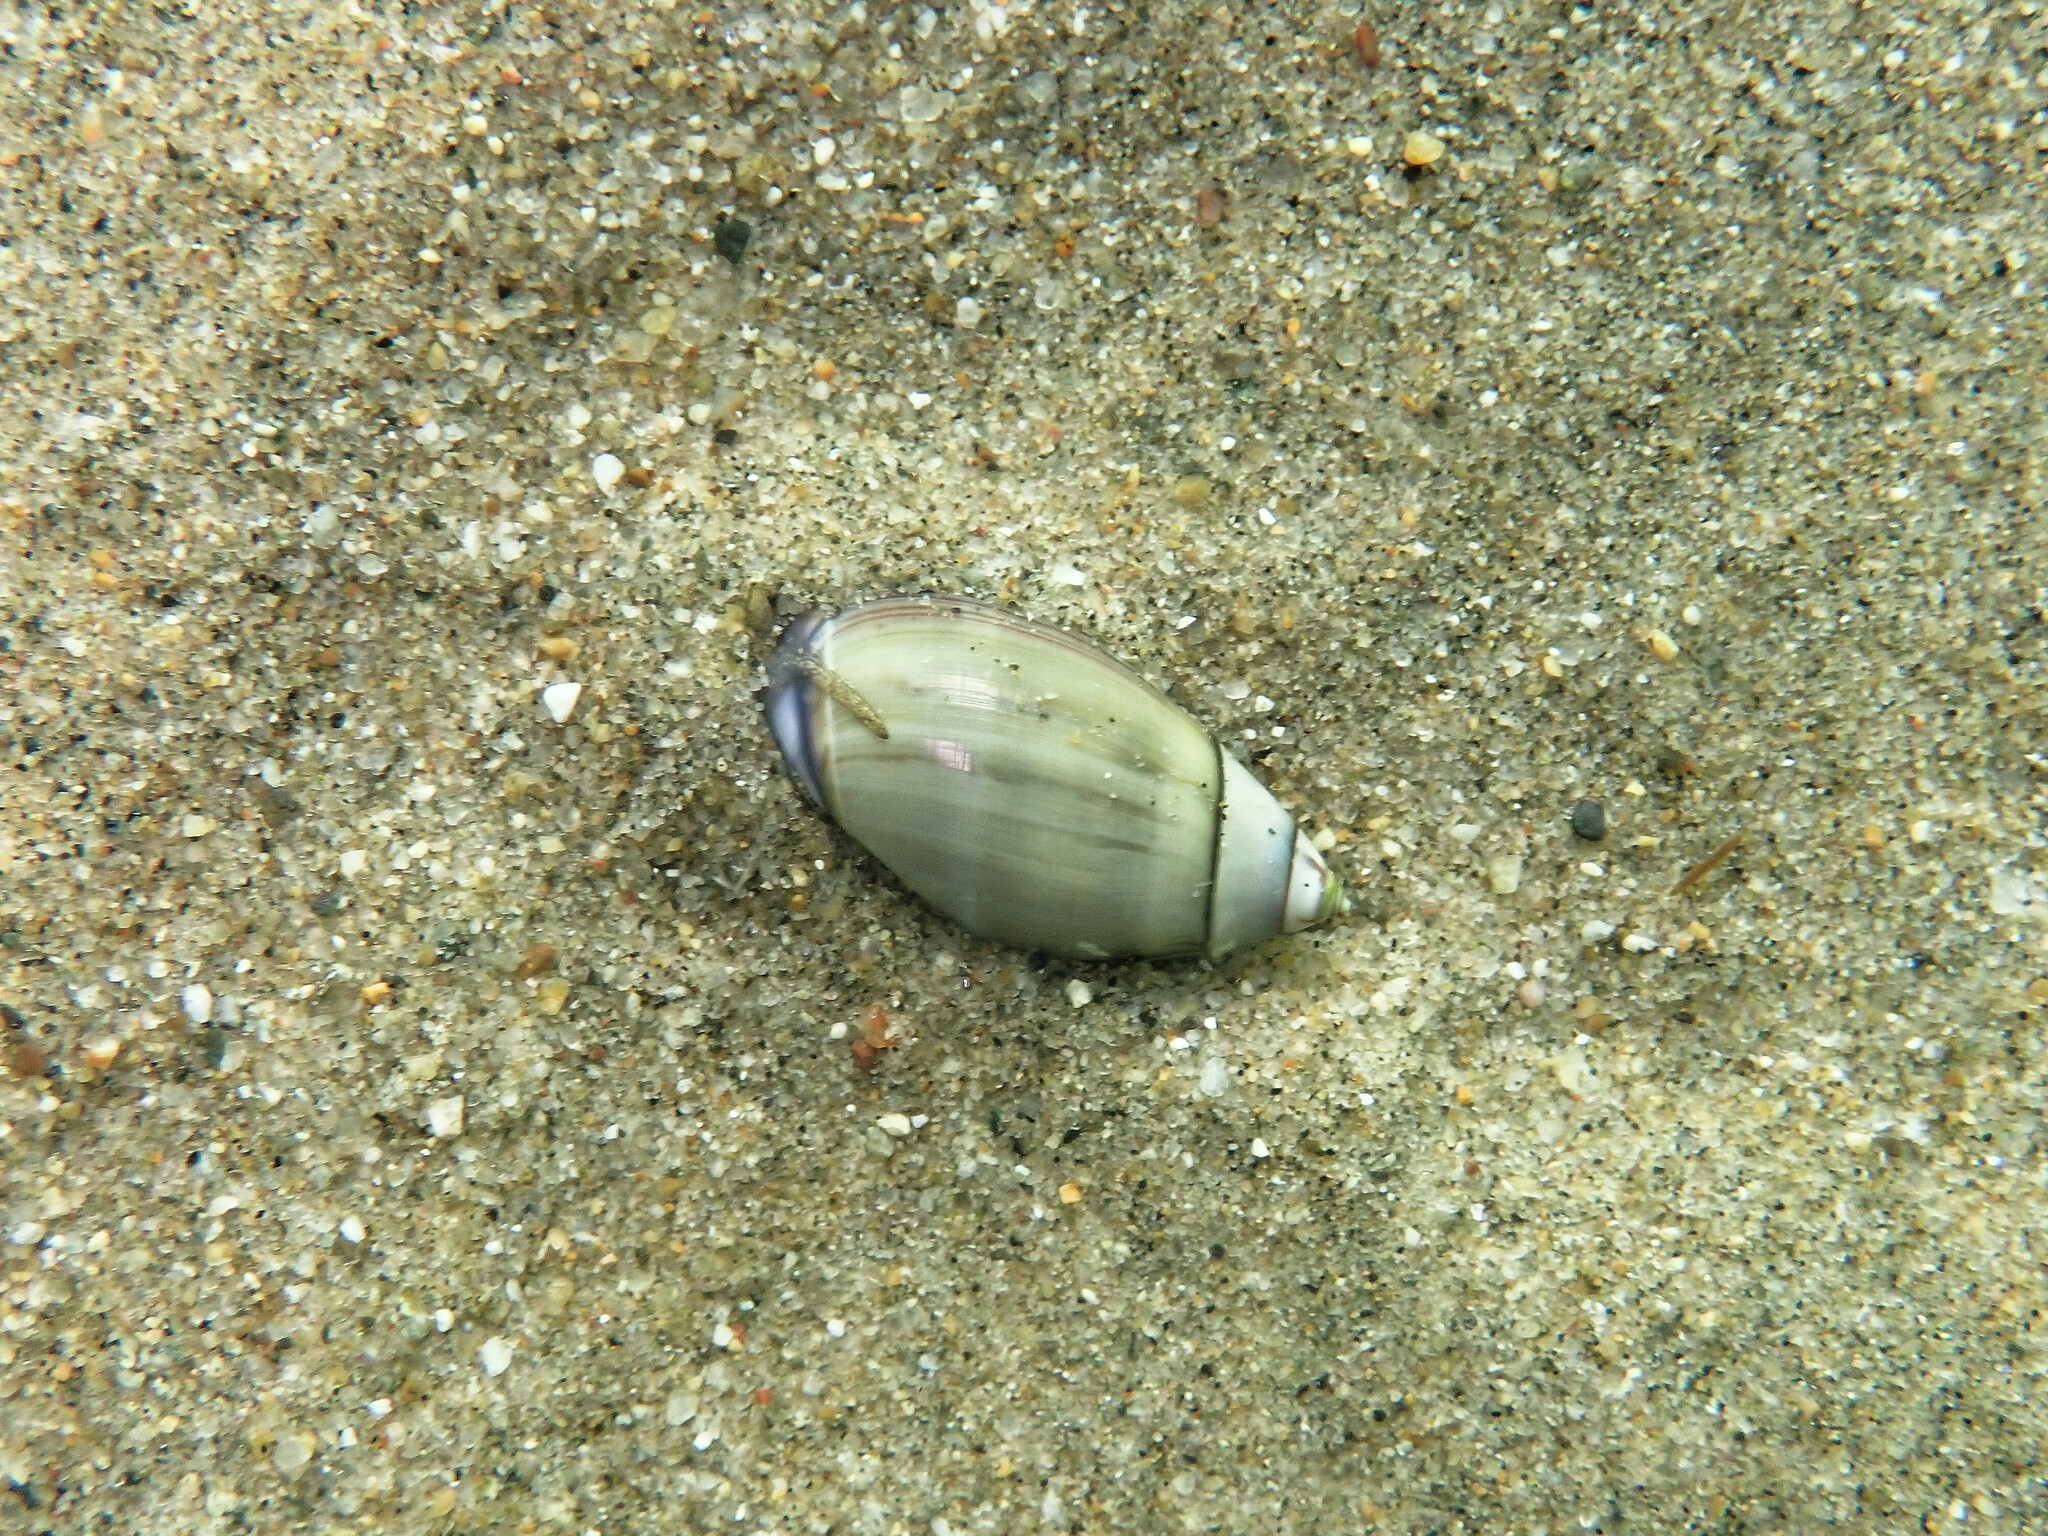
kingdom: Animalia
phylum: Mollusca
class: Gastropoda
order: Neogastropoda
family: Olividae
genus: Callianax
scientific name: Callianax biplicata
